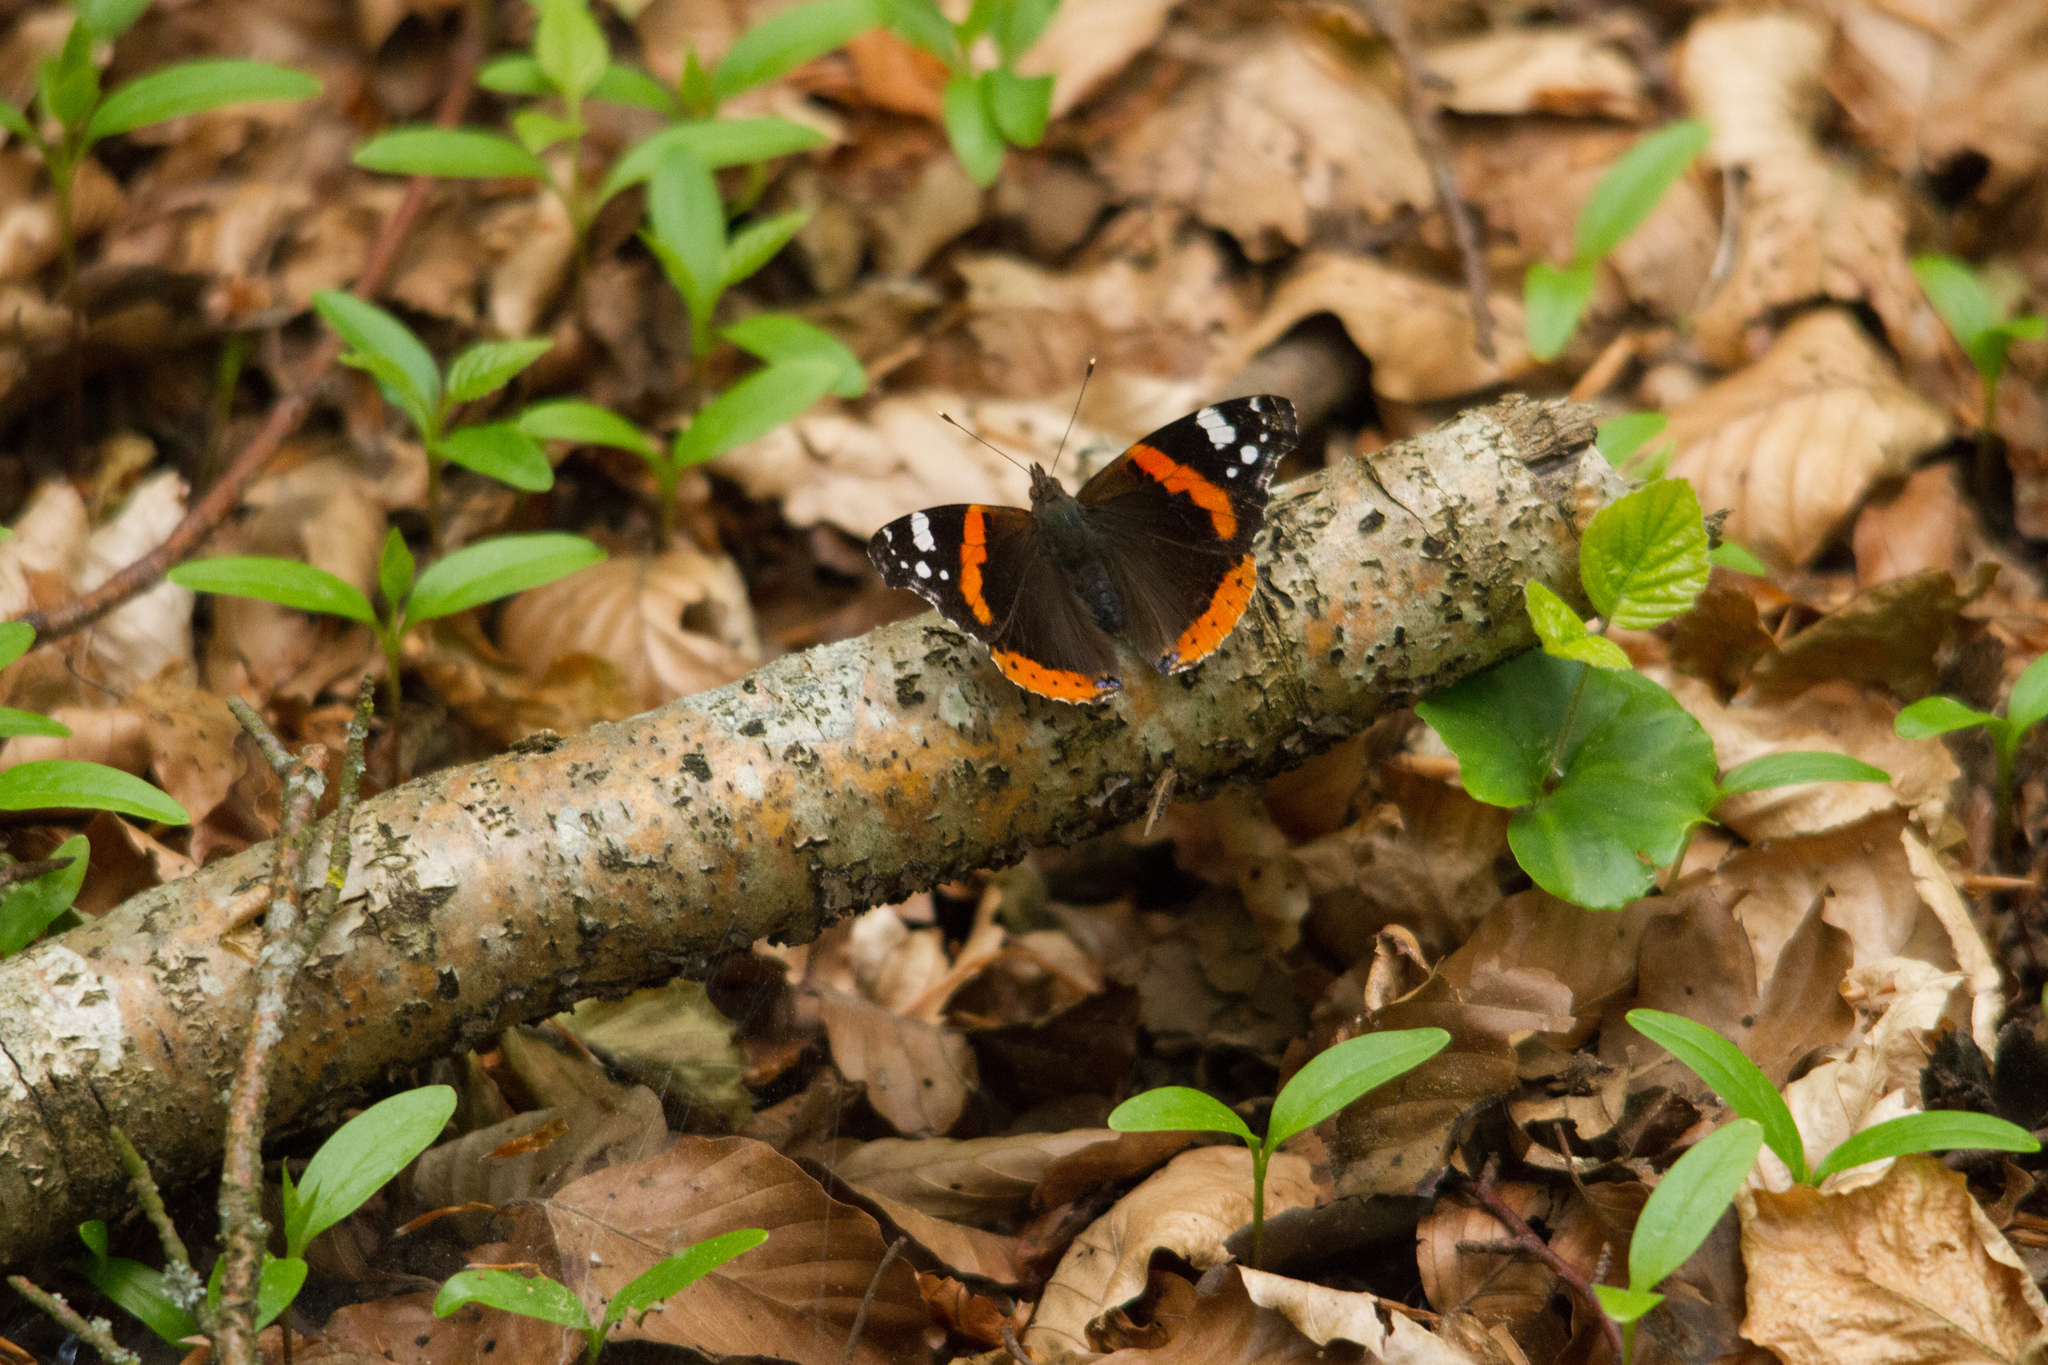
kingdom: Animalia
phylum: Arthropoda
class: Insecta
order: Lepidoptera
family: Nymphalidae
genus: Vanessa
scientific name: Vanessa atalanta
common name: Red admiral
